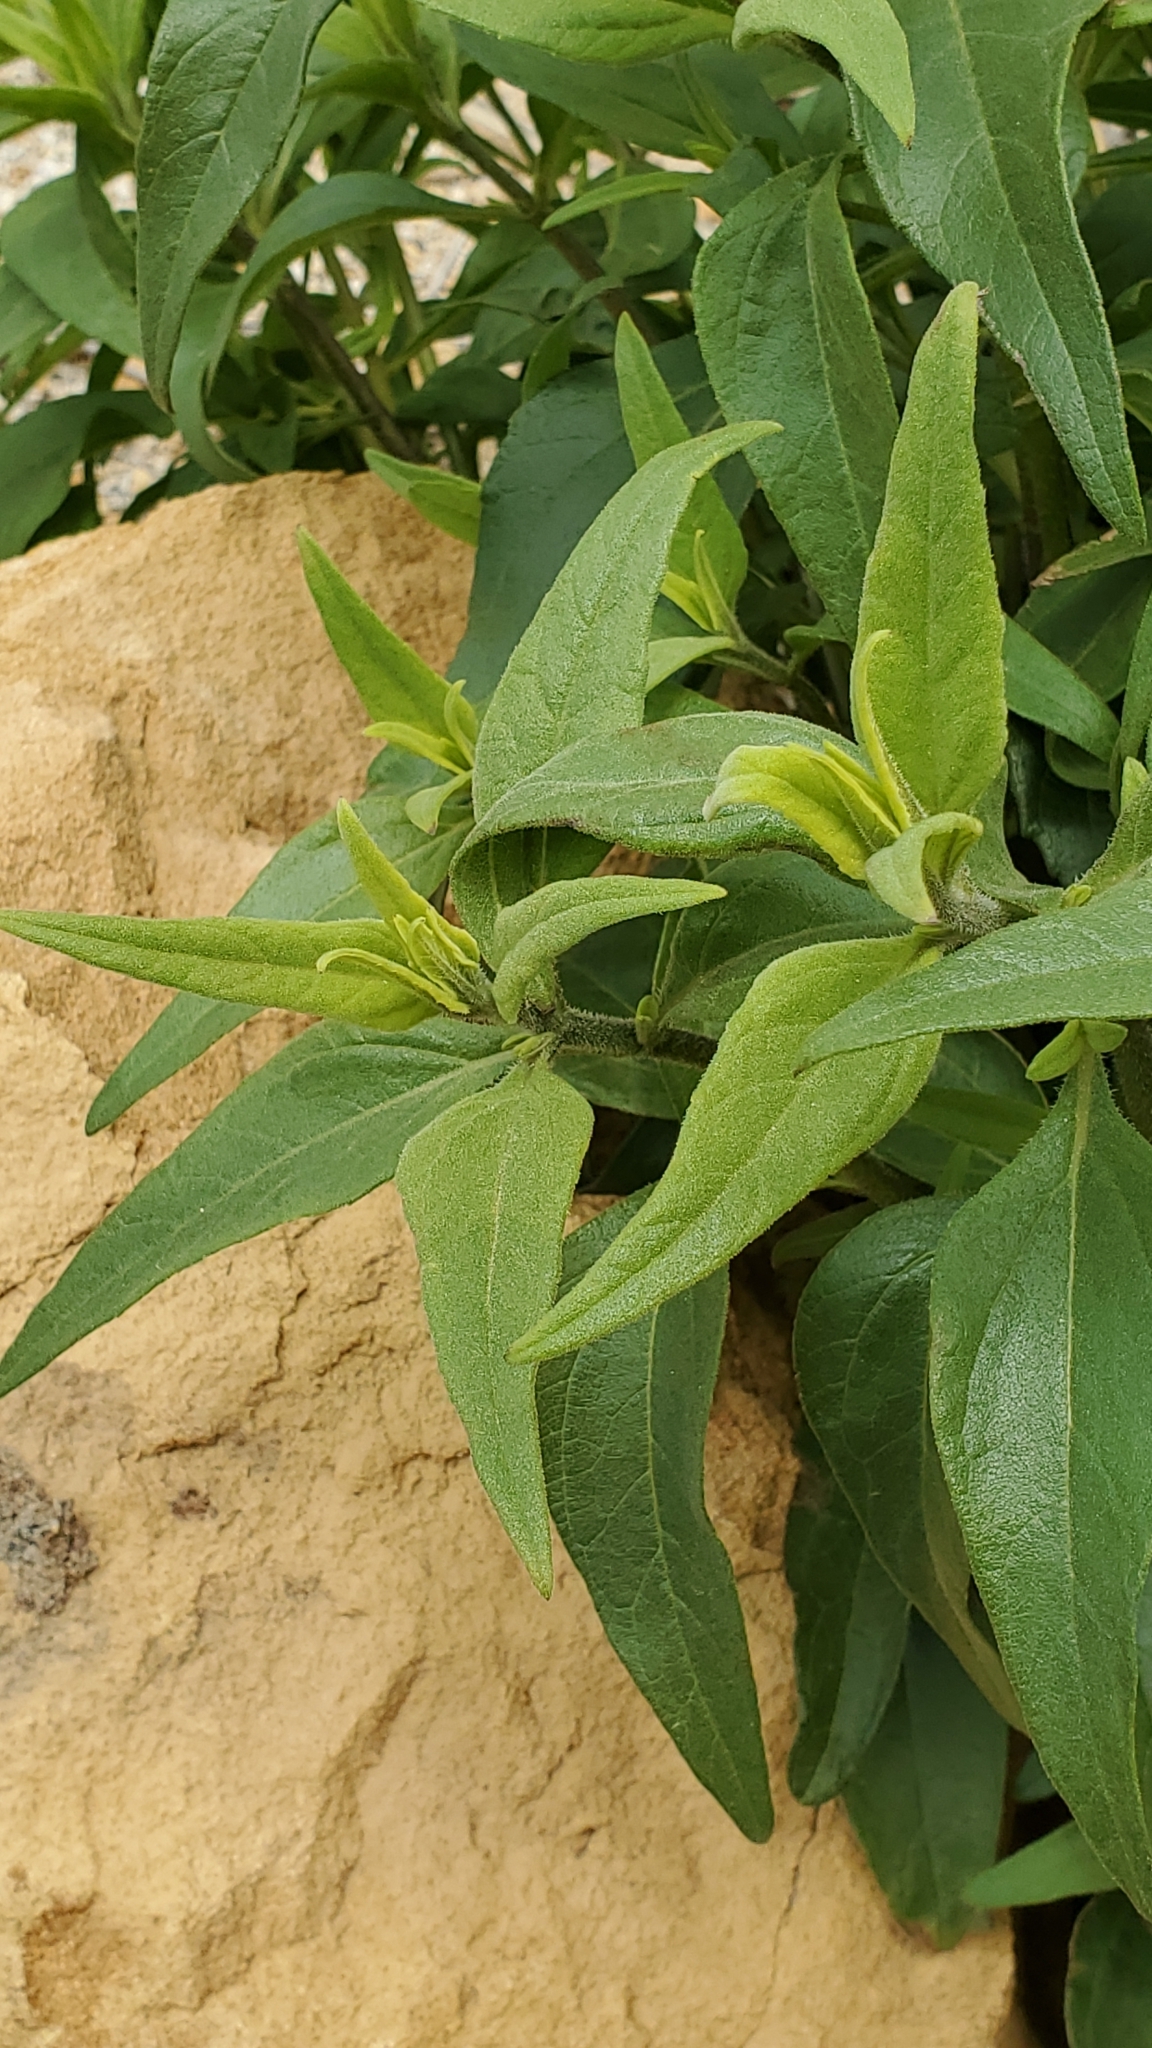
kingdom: Plantae
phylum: Tracheophyta
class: Magnoliopsida
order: Asterales
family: Asteraceae
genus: Helianthus
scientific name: Helianthus gracilentus
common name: Slender sunflower
